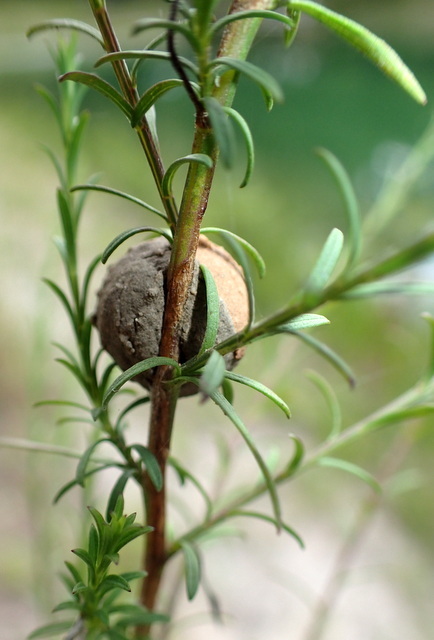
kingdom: Animalia
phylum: Arthropoda
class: Insecta
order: Hymenoptera
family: Vespidae
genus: Eumenes
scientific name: Eumenes
